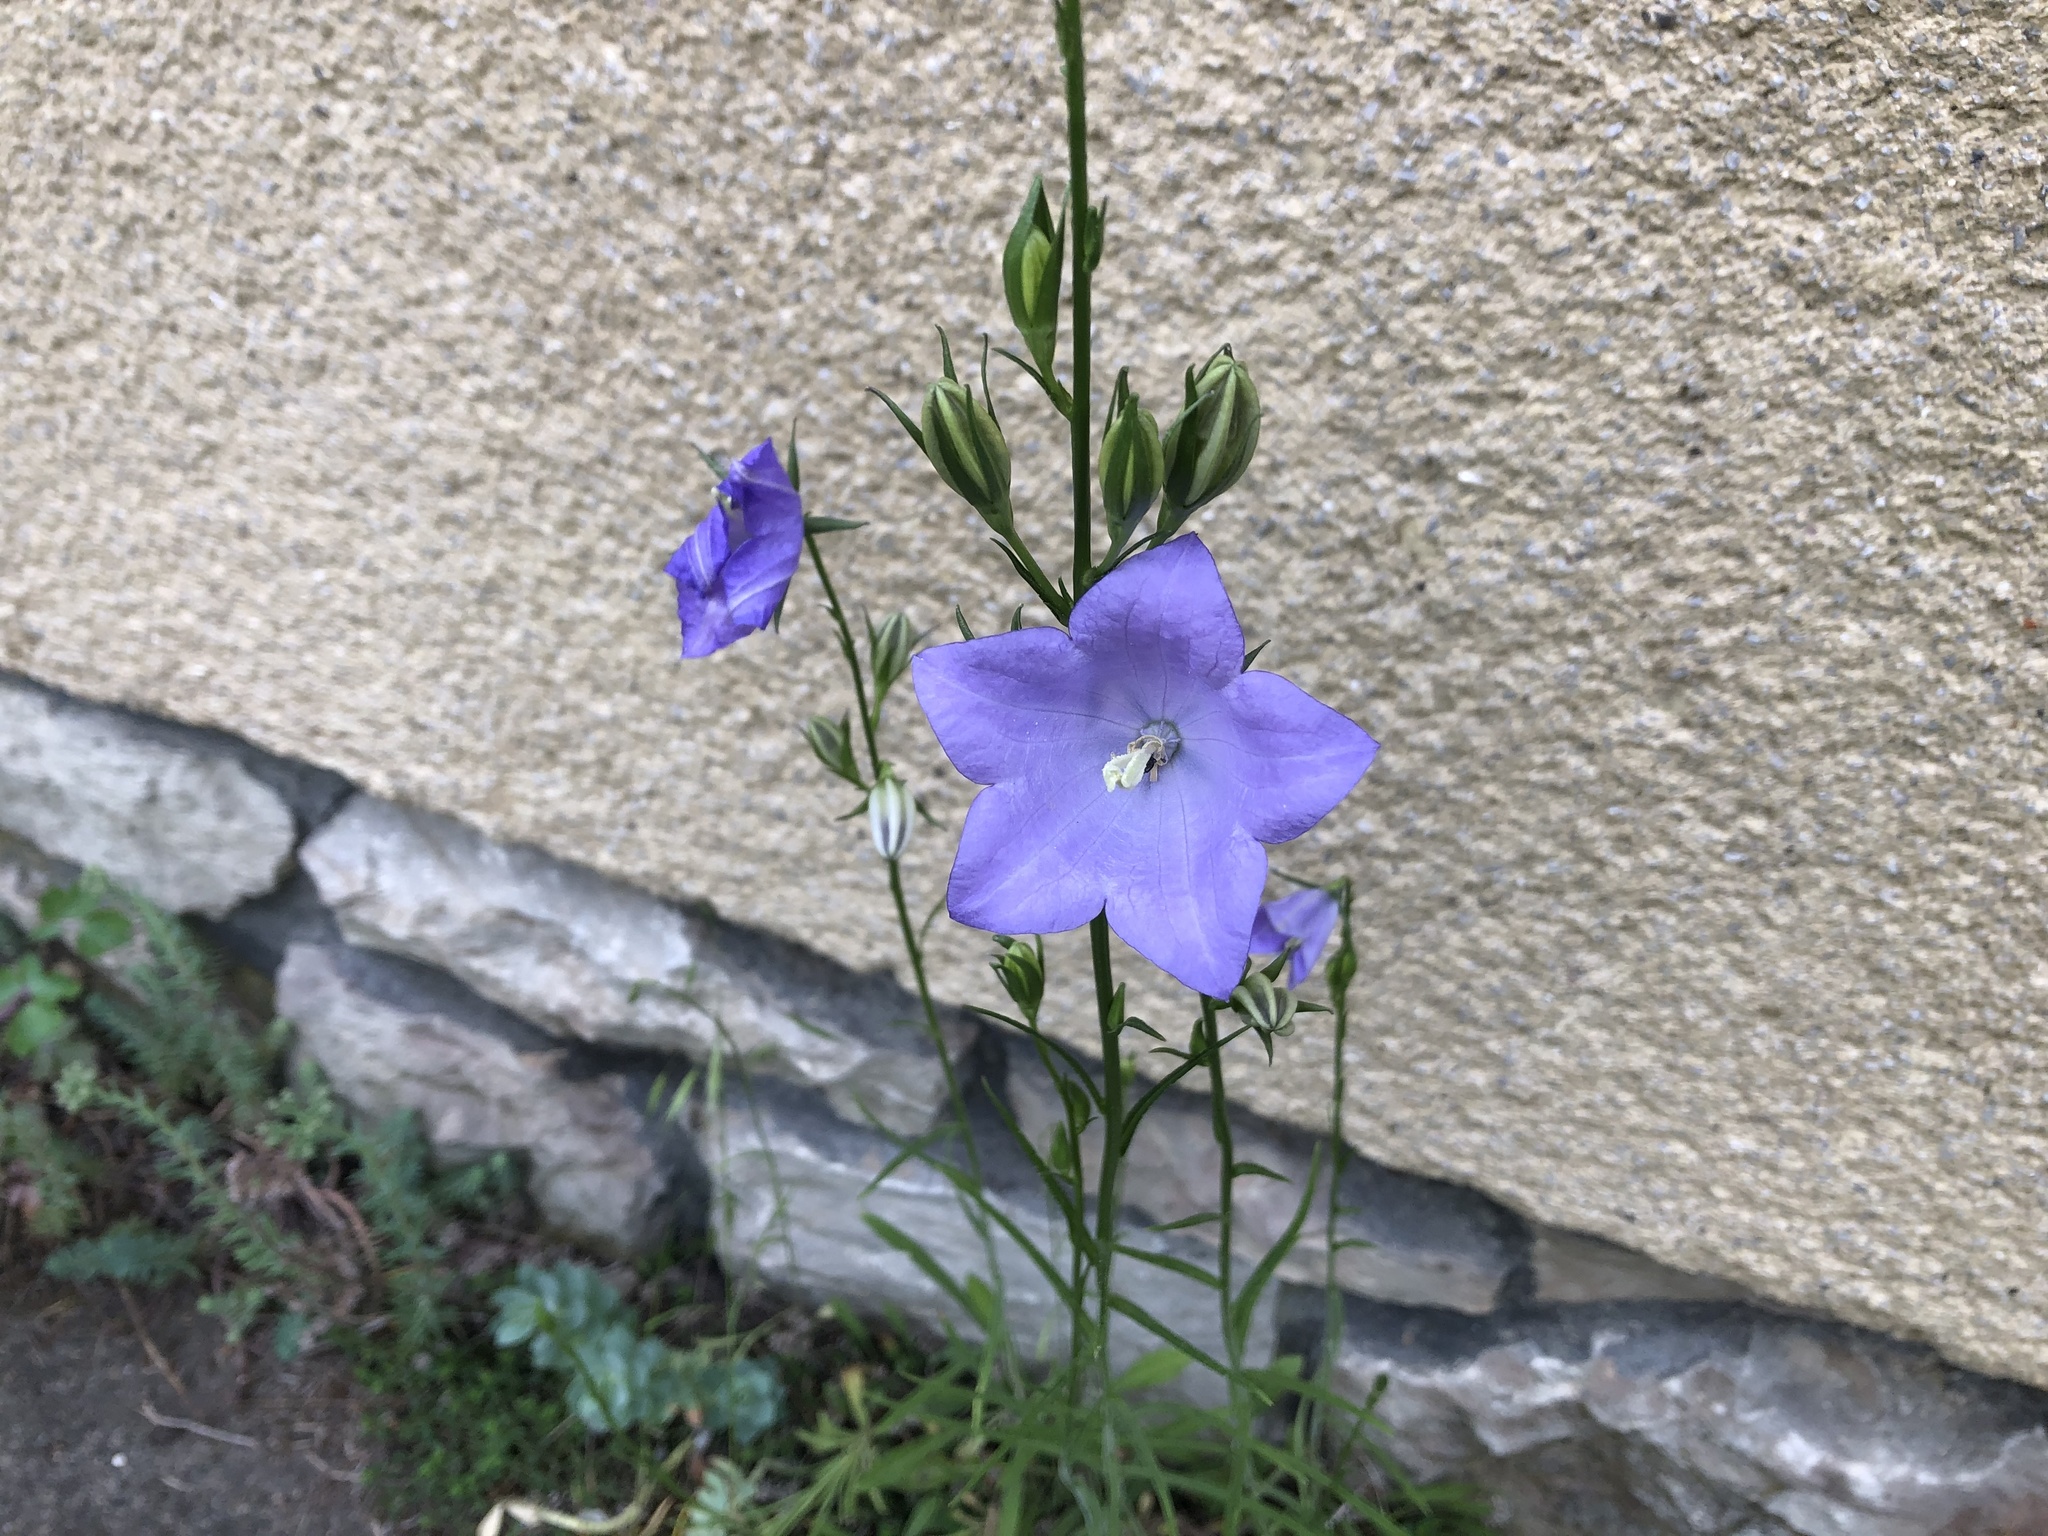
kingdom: Plantae
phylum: Tracheophyta
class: Magnoliopsida
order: Asterales
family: Campanulaceae
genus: Campanula
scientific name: Campanula persicifolia
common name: Peach-leaved bellflower
